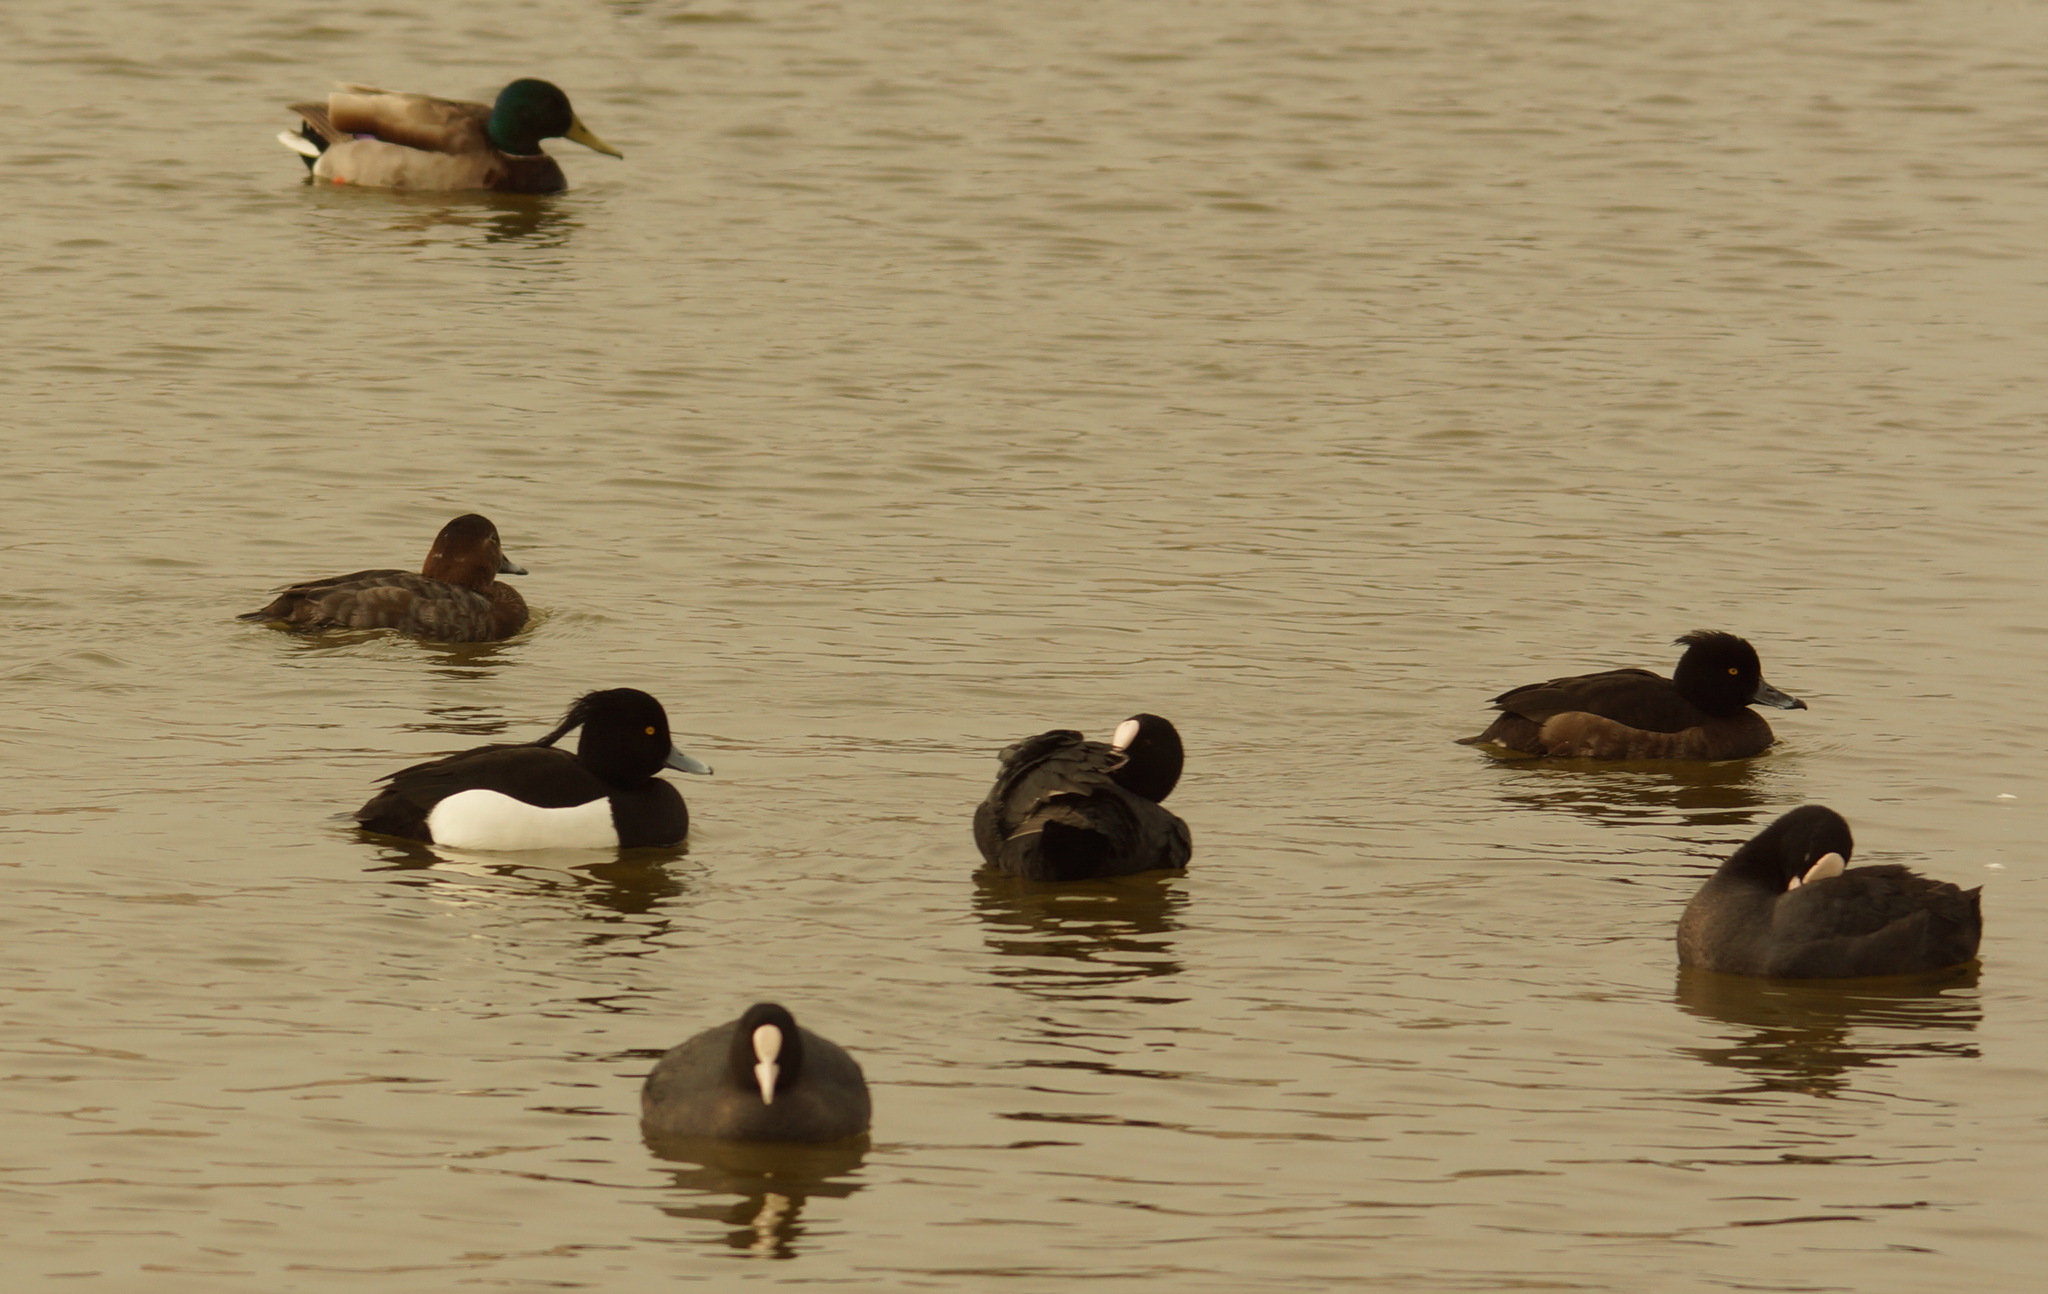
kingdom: Animalia
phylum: Chordata
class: Aves
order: Anseriformes
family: Anatidae
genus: Aythya
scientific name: Aythya ferina
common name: Common pochard
